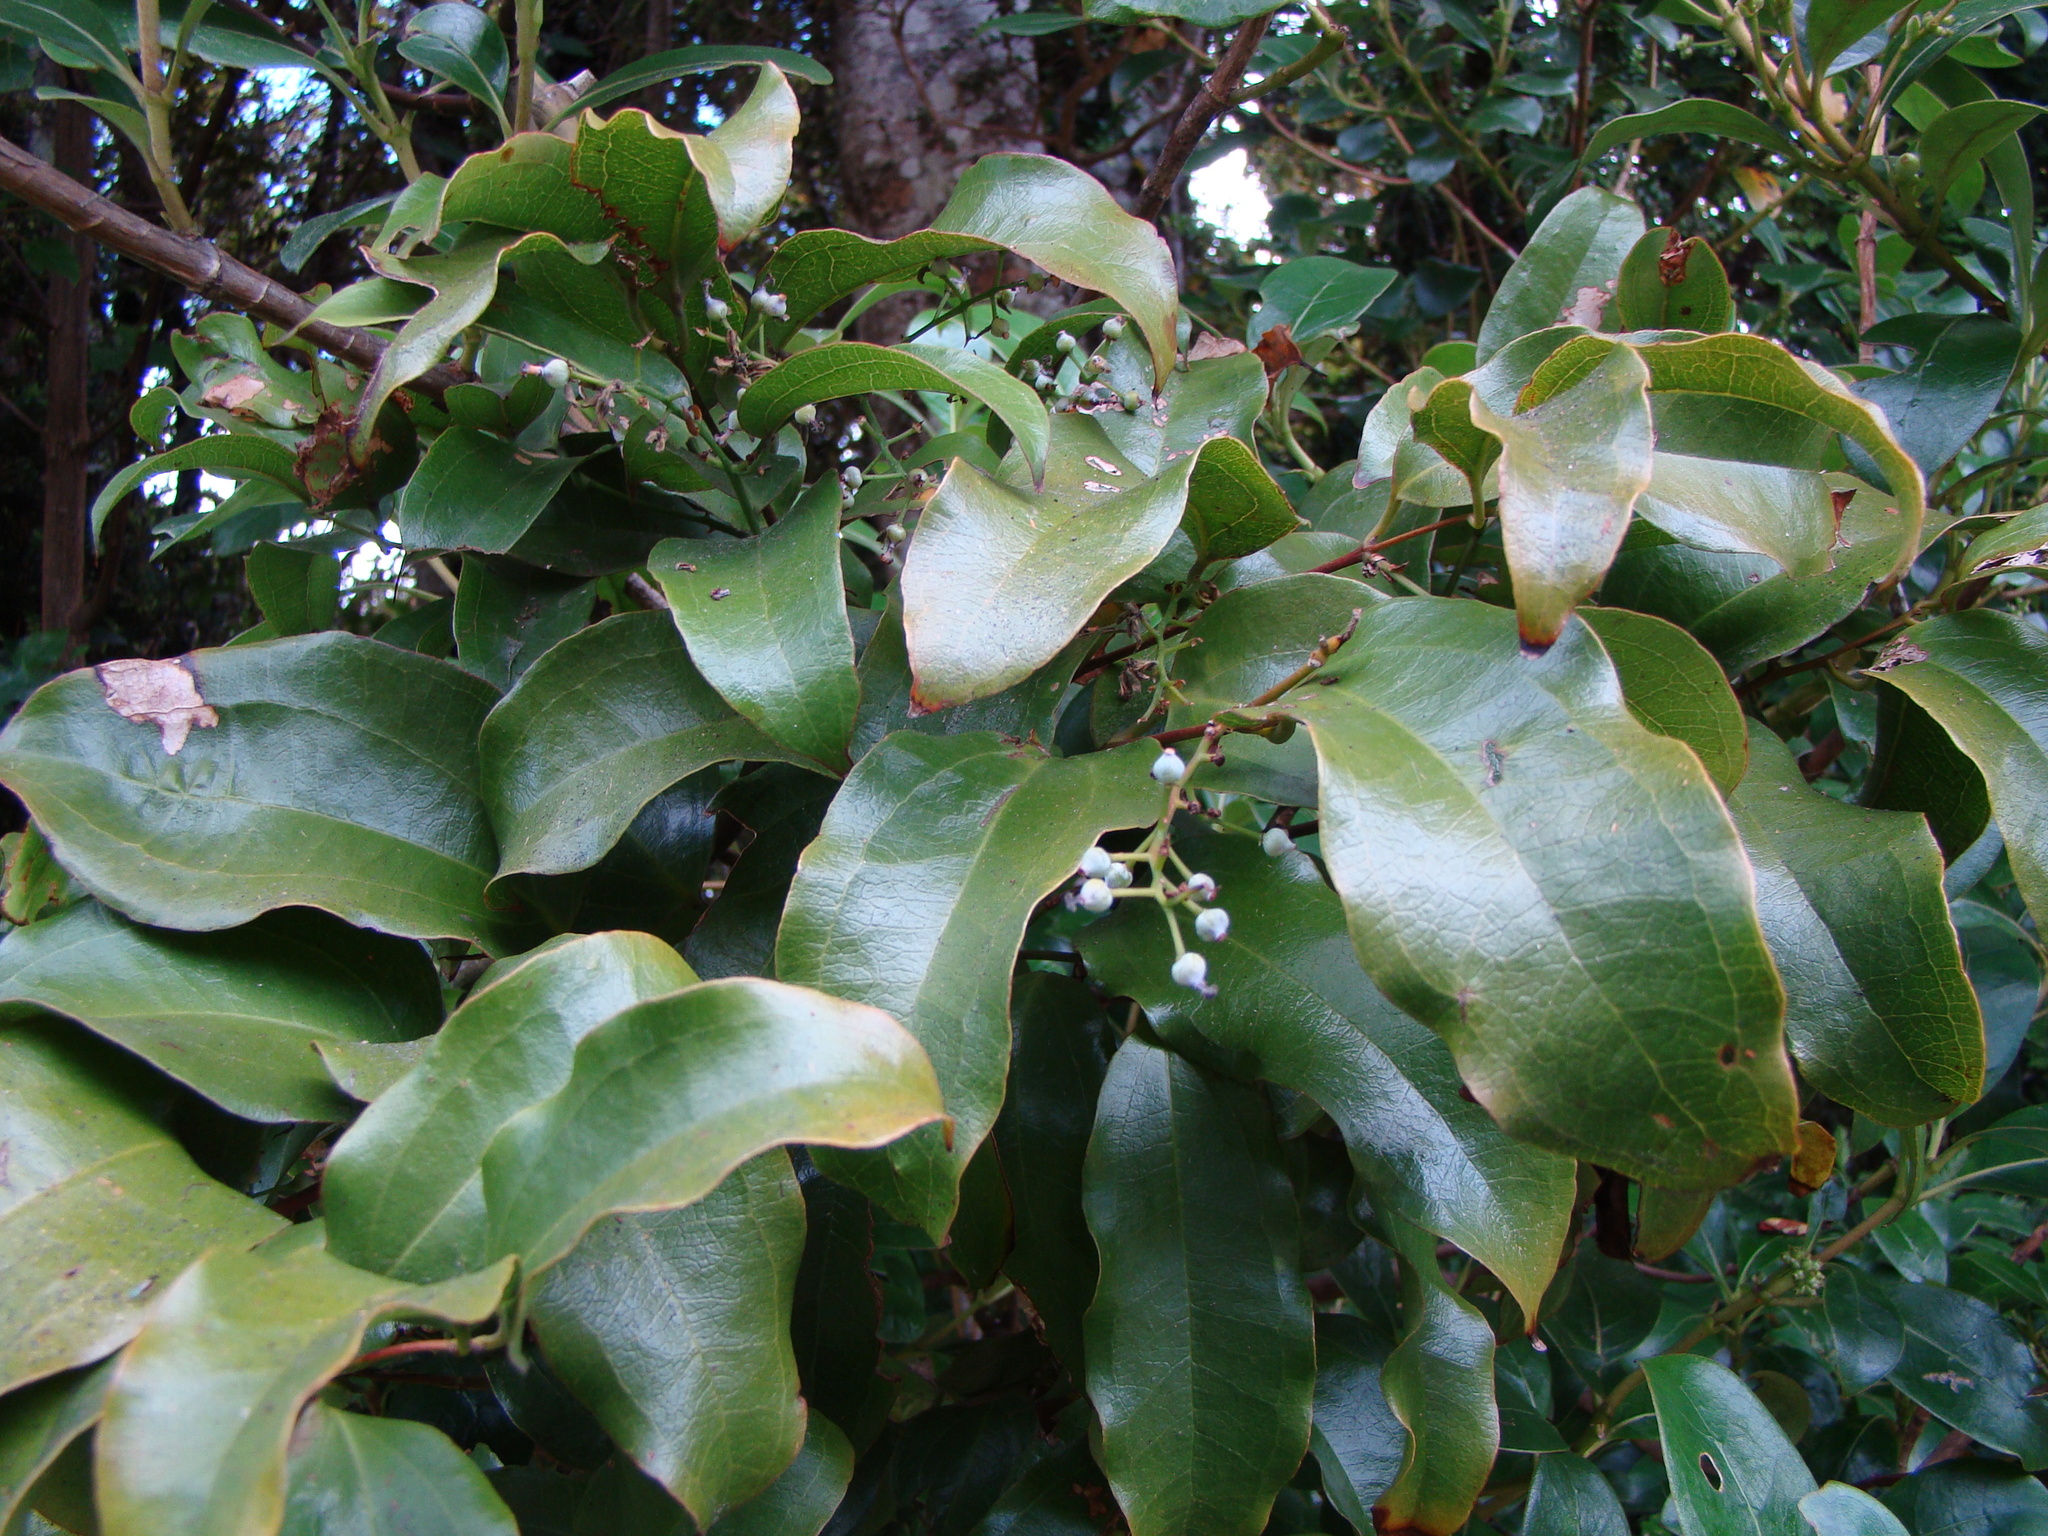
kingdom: Plantae
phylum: Tracheophyta
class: Liliopsida
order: Liliales
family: Ripogonaceae
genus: Ripogonum
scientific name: Ripogonum scandens
